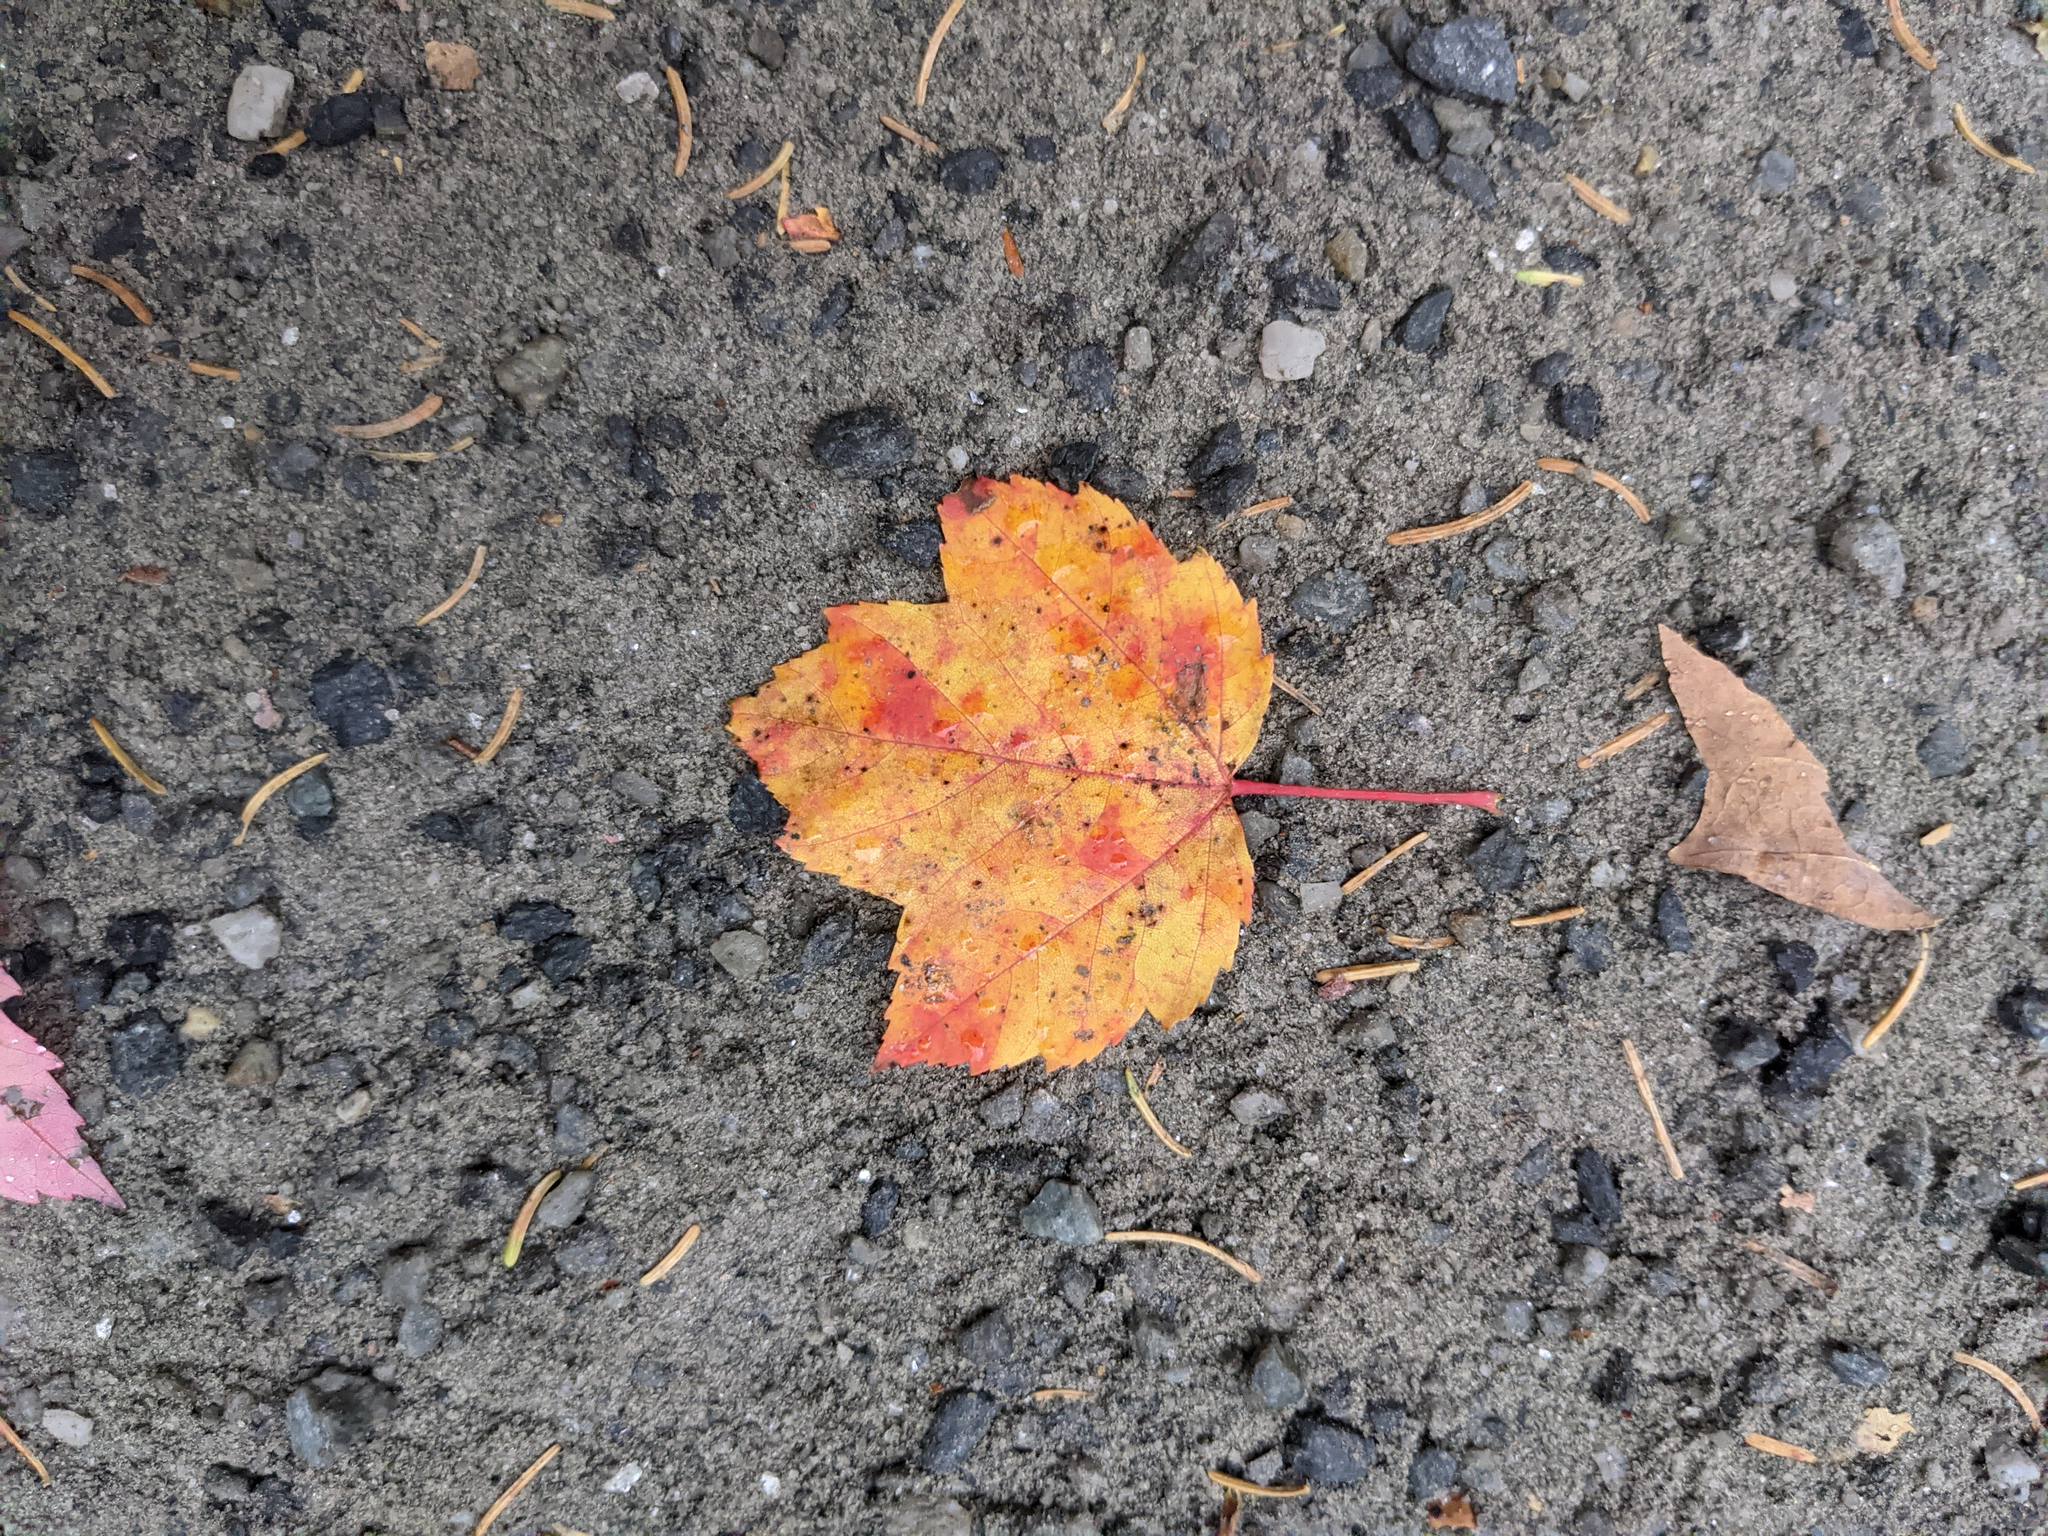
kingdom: Plantae
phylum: Tracheophyta
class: Magnoliopsida
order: Sapindales
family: Sapindaceae
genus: Acer
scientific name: Acer rubrum
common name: Red maple
